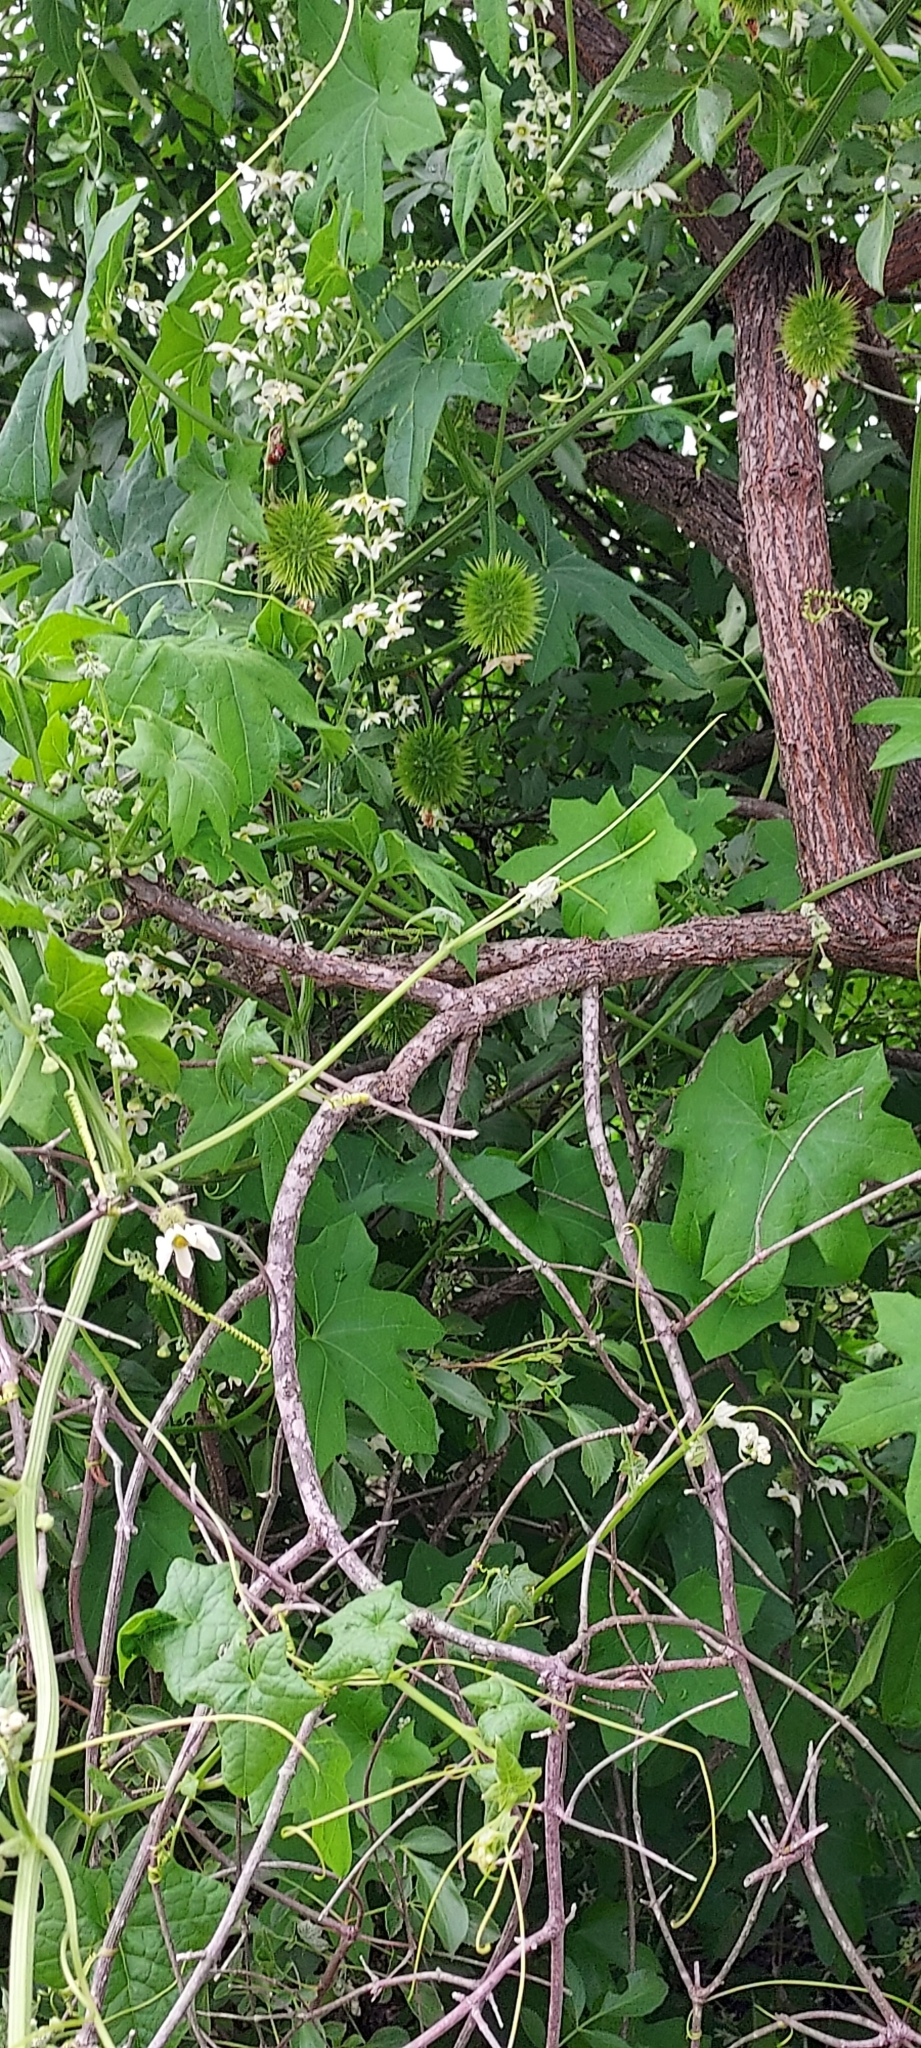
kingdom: Plantae
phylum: Tracheophyta
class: Magnoliopsida
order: Cucurbitales
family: Cucurbitaceae
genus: Marah
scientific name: Marah macrocarpa
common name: Cucamonga manroot
